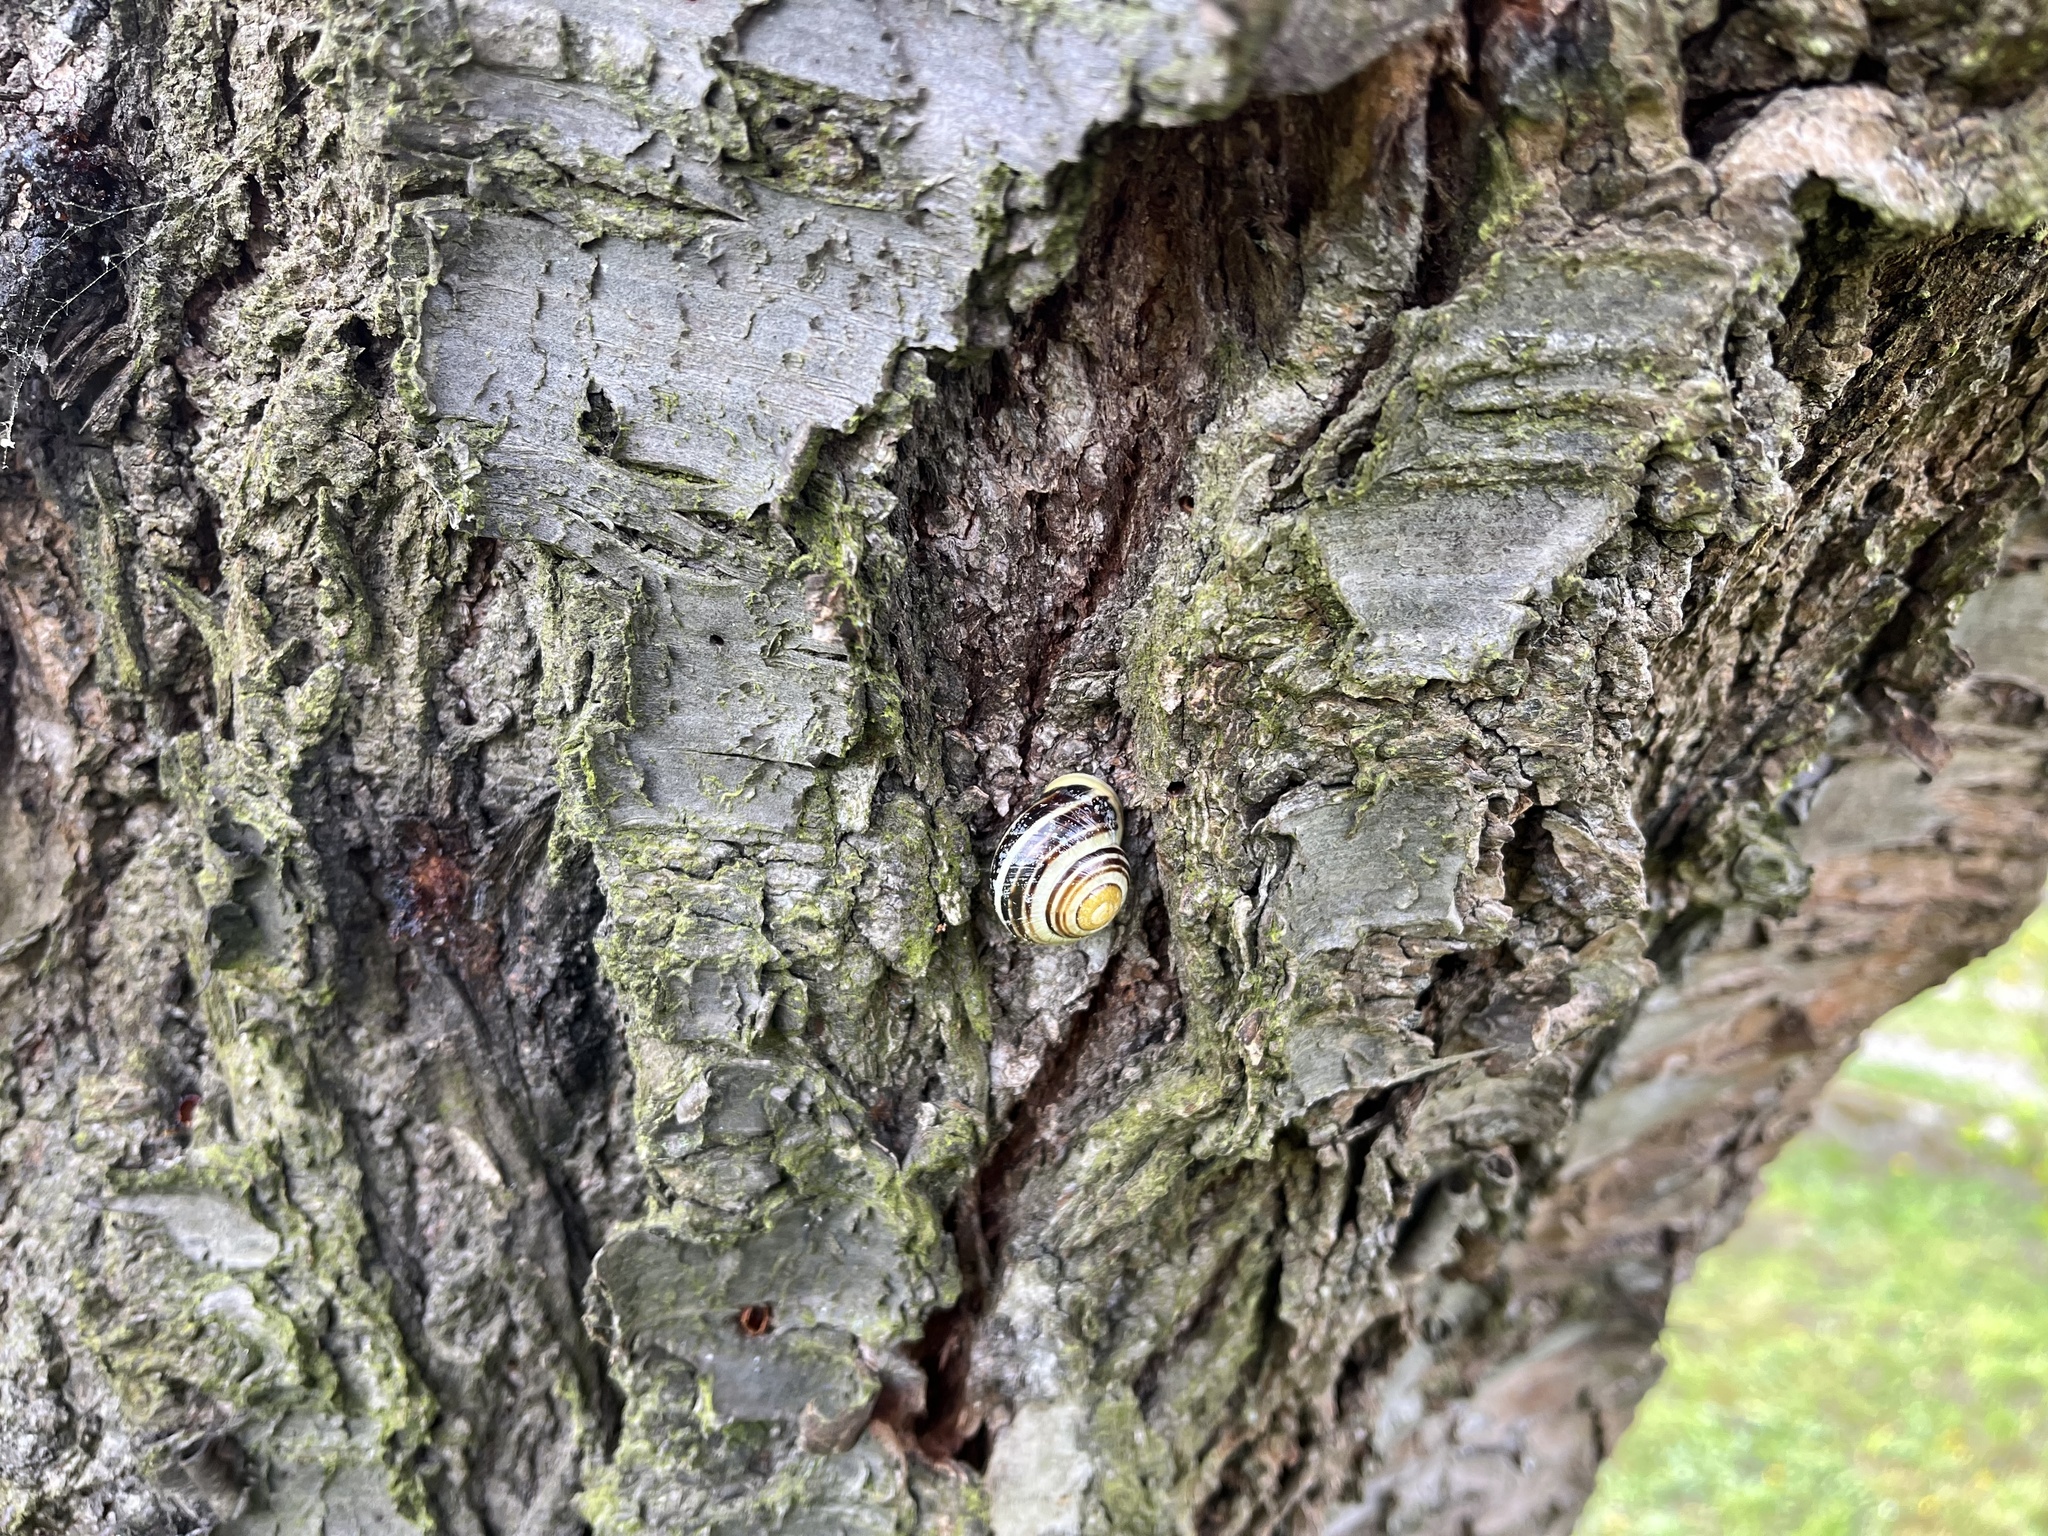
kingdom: Animalia
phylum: Mollusca
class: Gastropoda
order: Stylommatophora
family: Helicidae
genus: Cepaea
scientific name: Cepaea hortensis
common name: White-lip gardensnail
